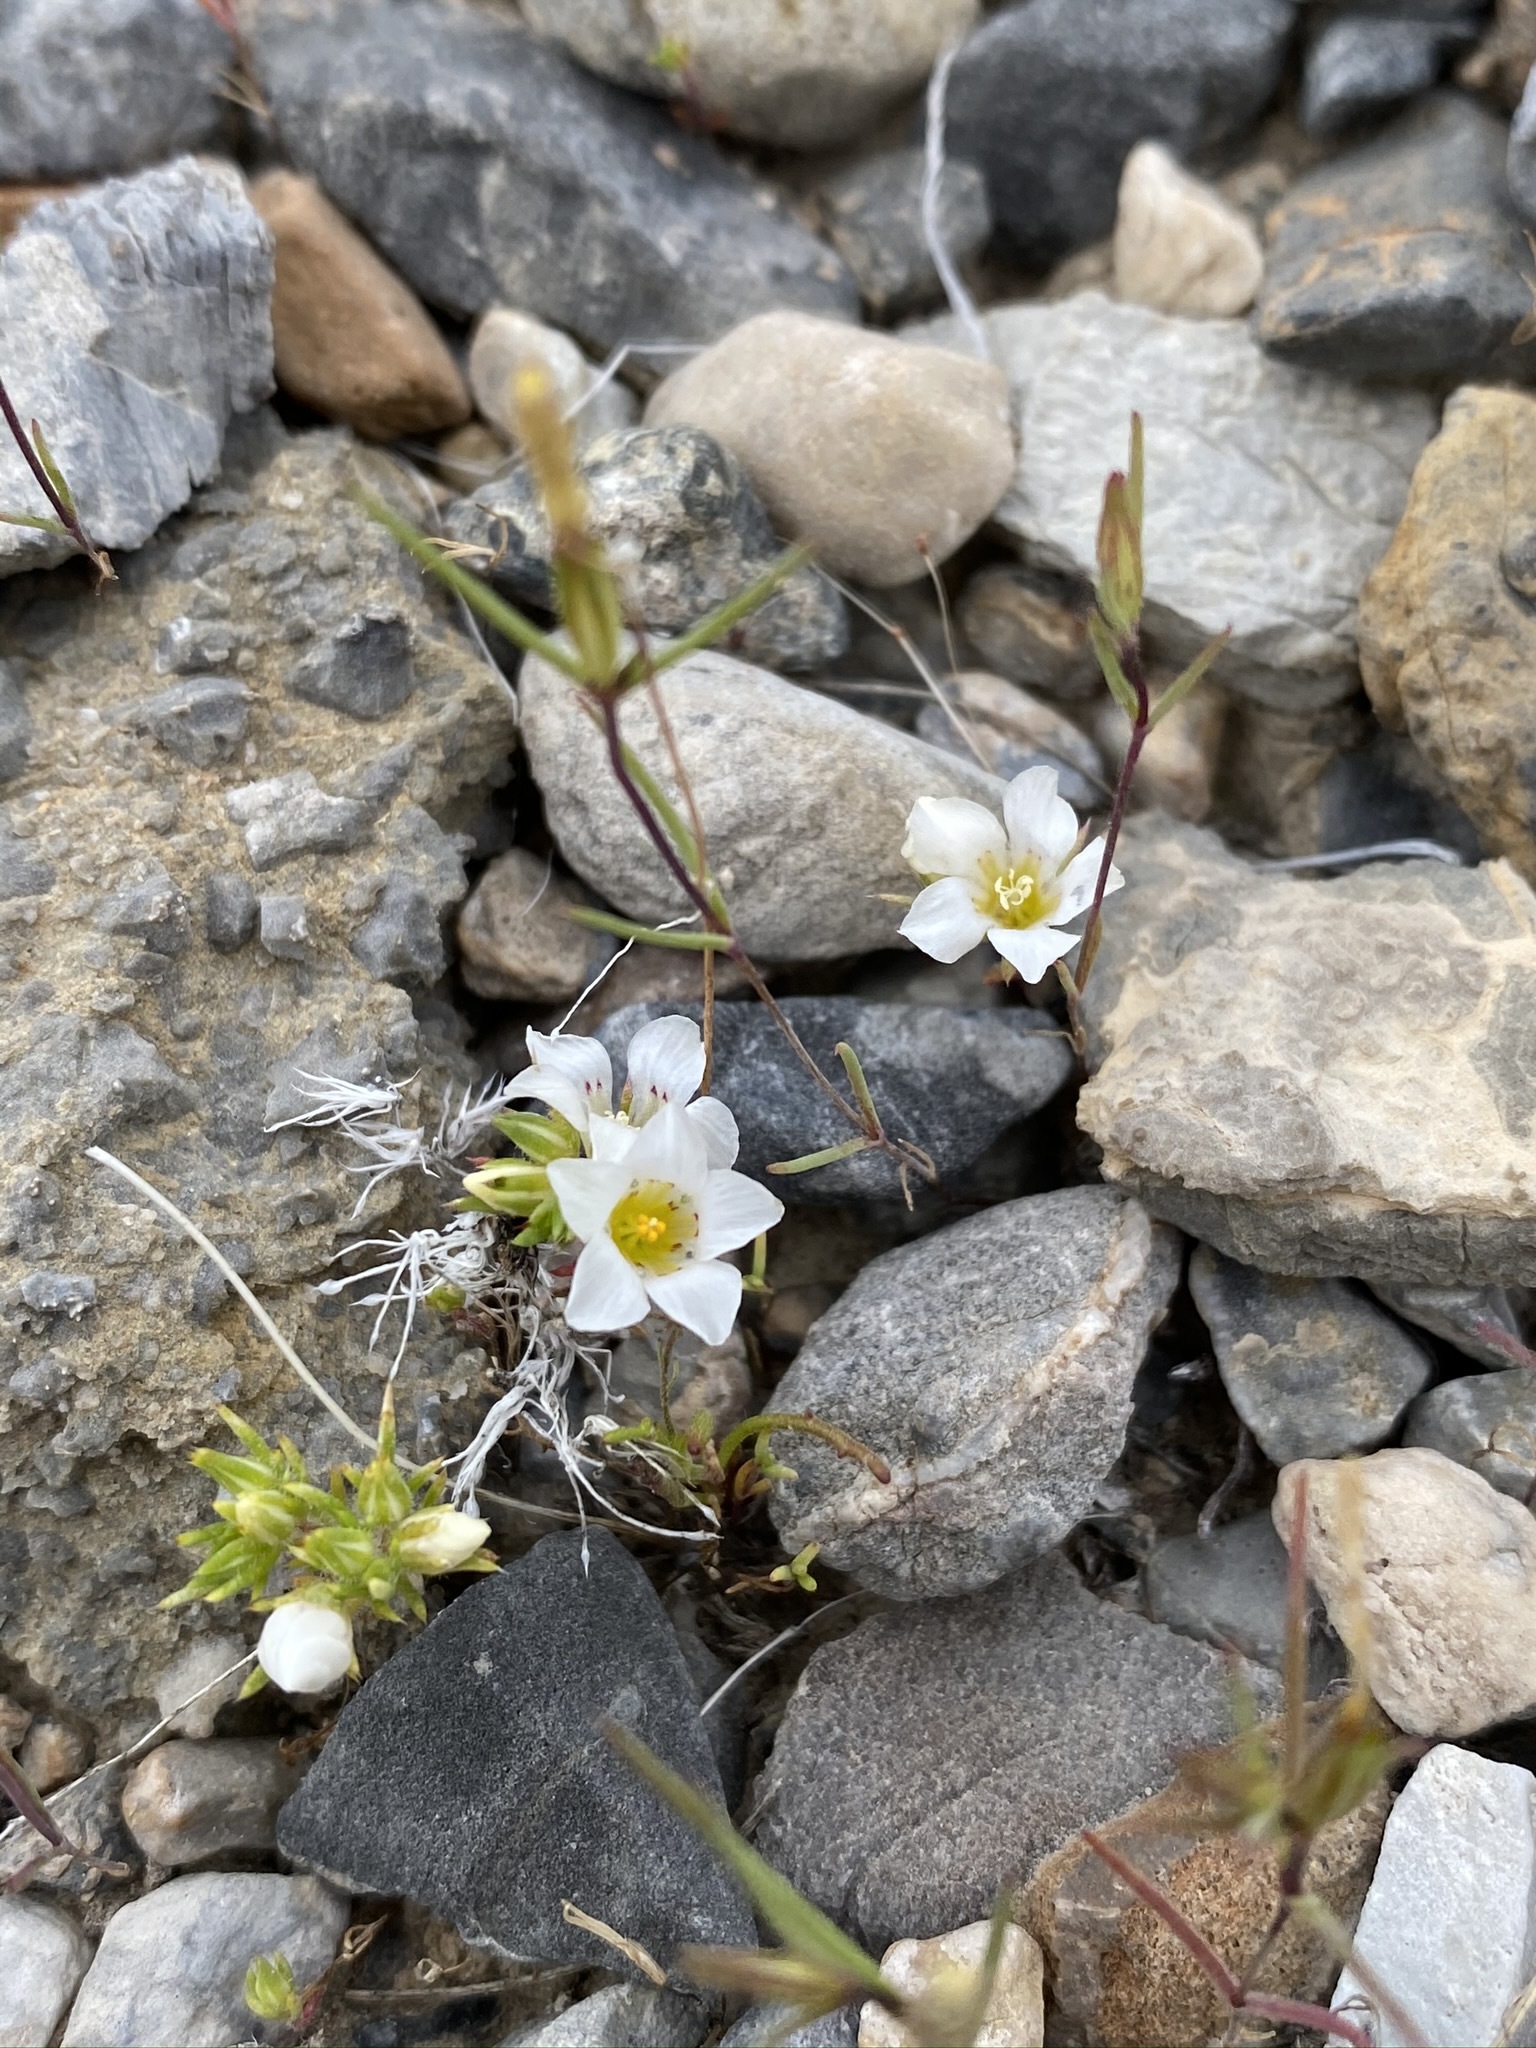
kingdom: Plantae
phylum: Tracheophyta
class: Magnoliopsida
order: Ericales
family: Polemoniaceae
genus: Linanthus
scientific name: Linanthus demissus
